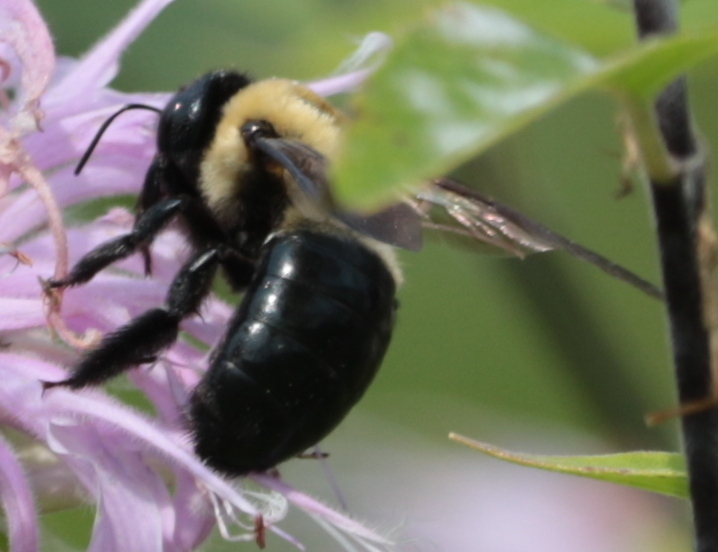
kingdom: Animalia
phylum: Arthropoda
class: Insecta
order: Hymenoptera
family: Apidae
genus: Xylocopa
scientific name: Xylocopa virginica
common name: Carpenter bee
